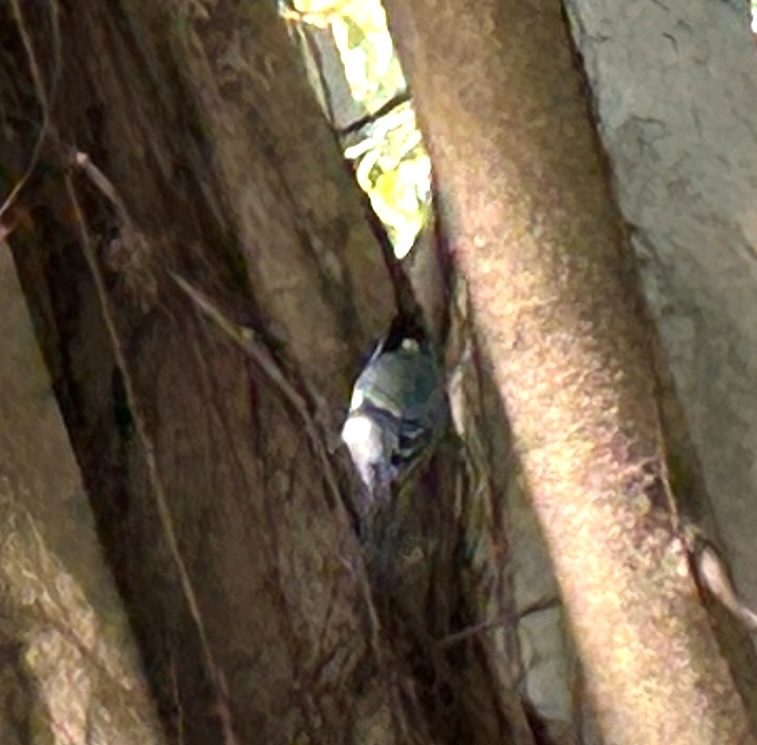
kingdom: Animalia
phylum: Chordata
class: Aves
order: Passeriformes
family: Paridae
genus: Parus
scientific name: Parus minor
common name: Japanese tit
